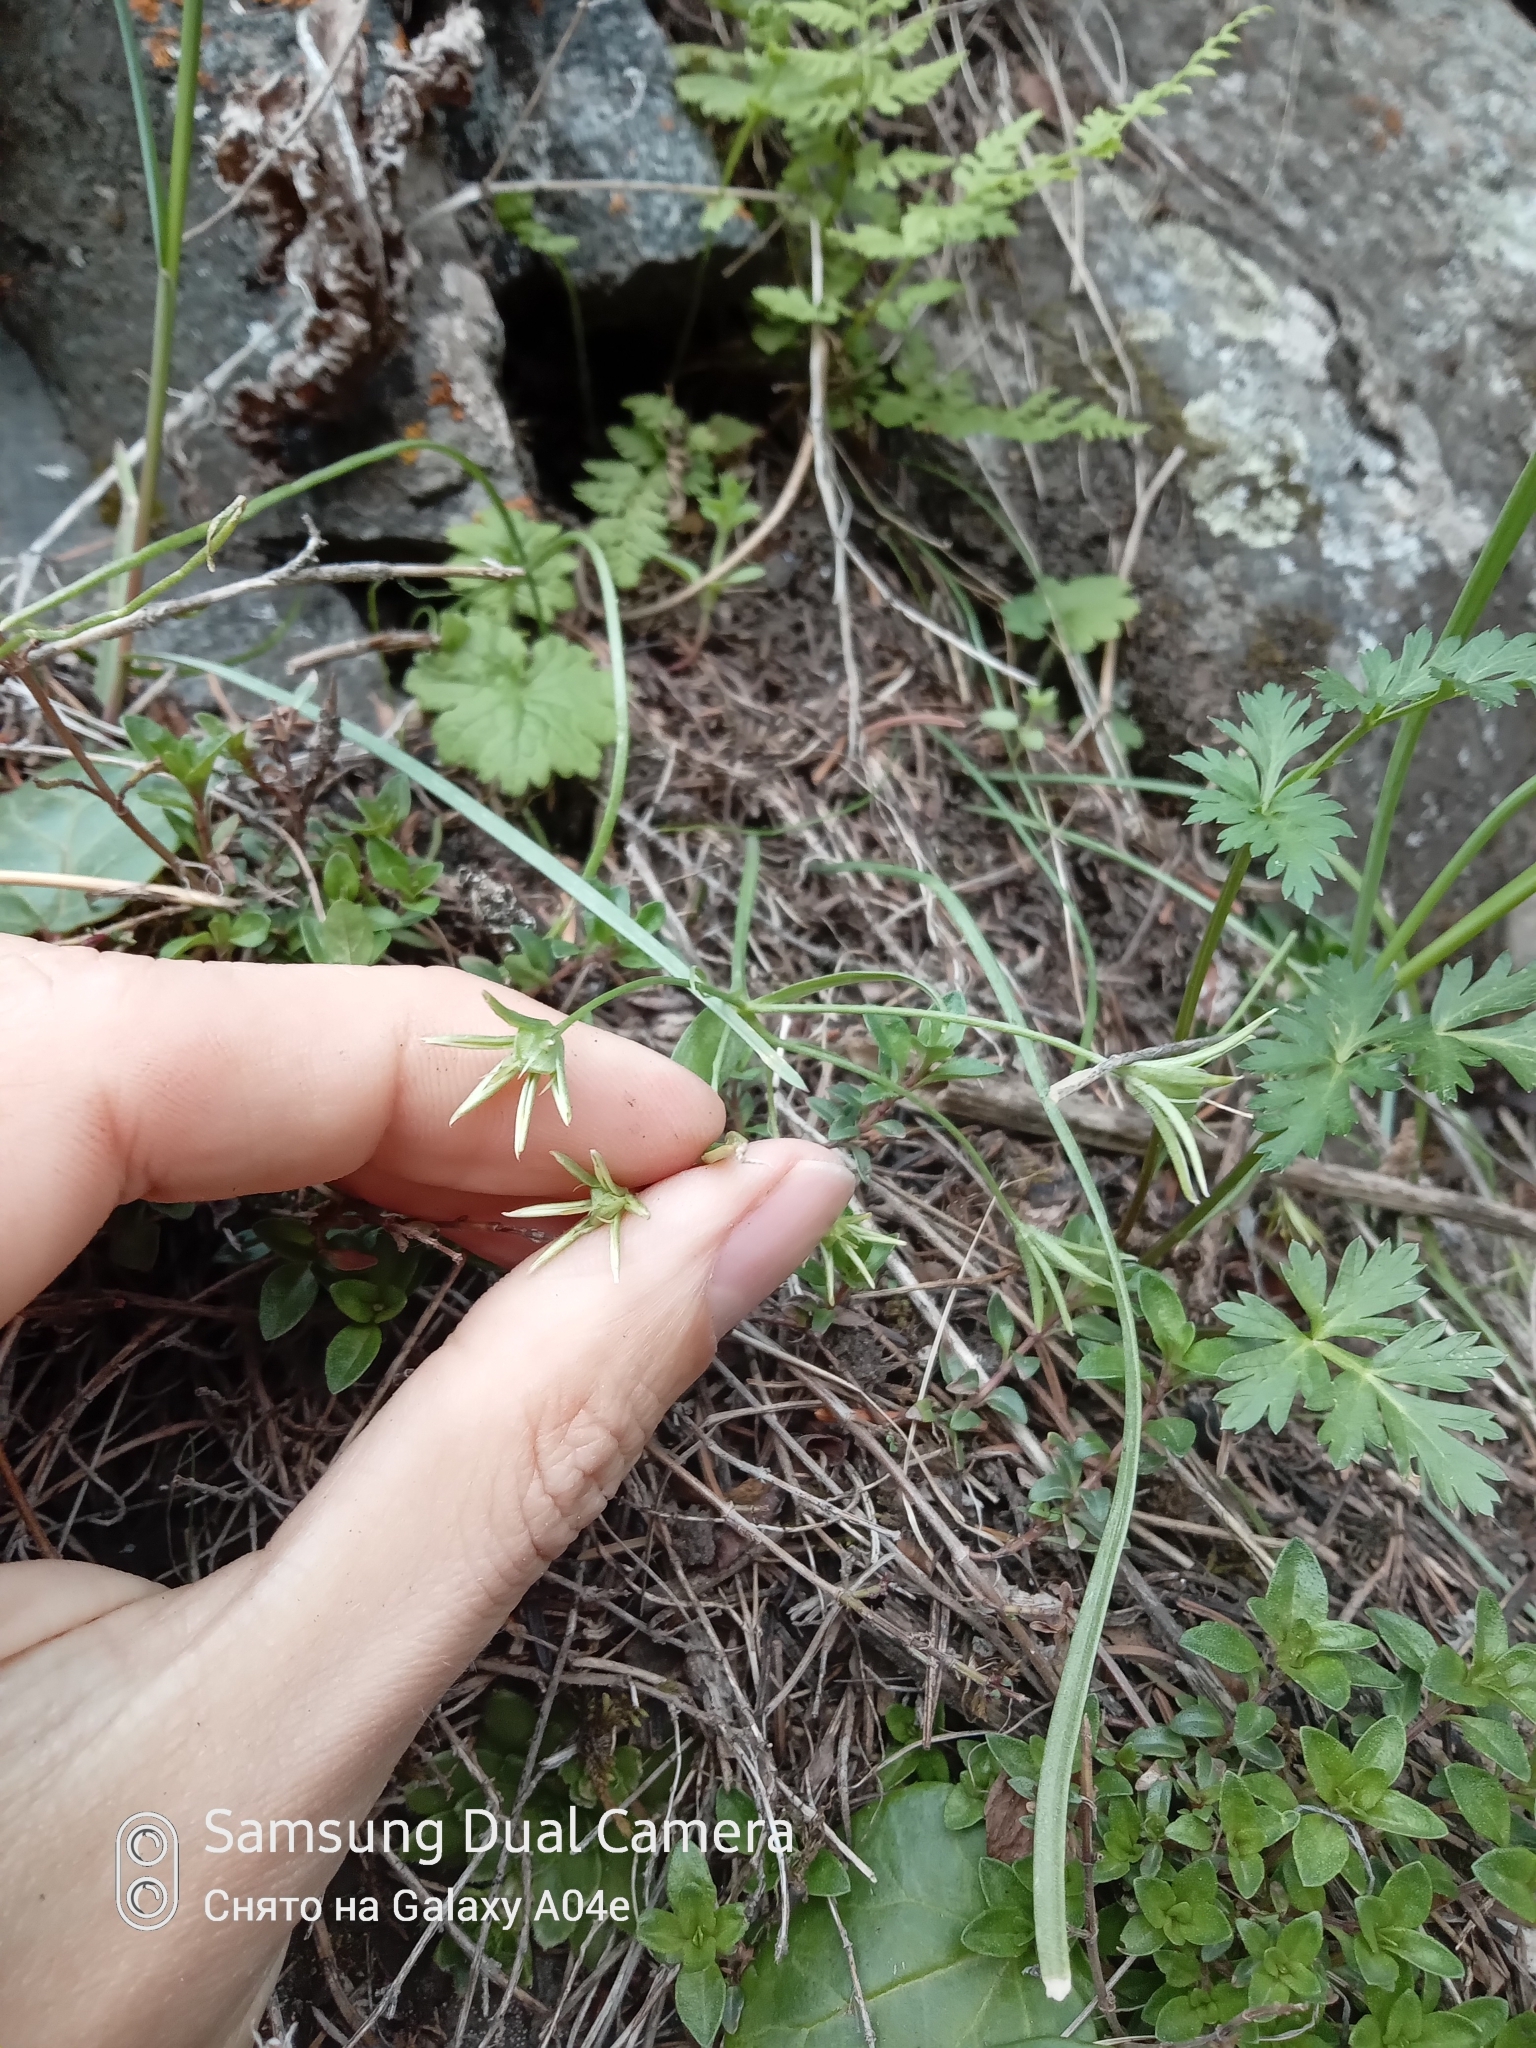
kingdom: Plantae
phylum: Tracheophyta
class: Liliopsida
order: Liliales
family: Liliaceae
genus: Gagea
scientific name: Gagea filiformis
